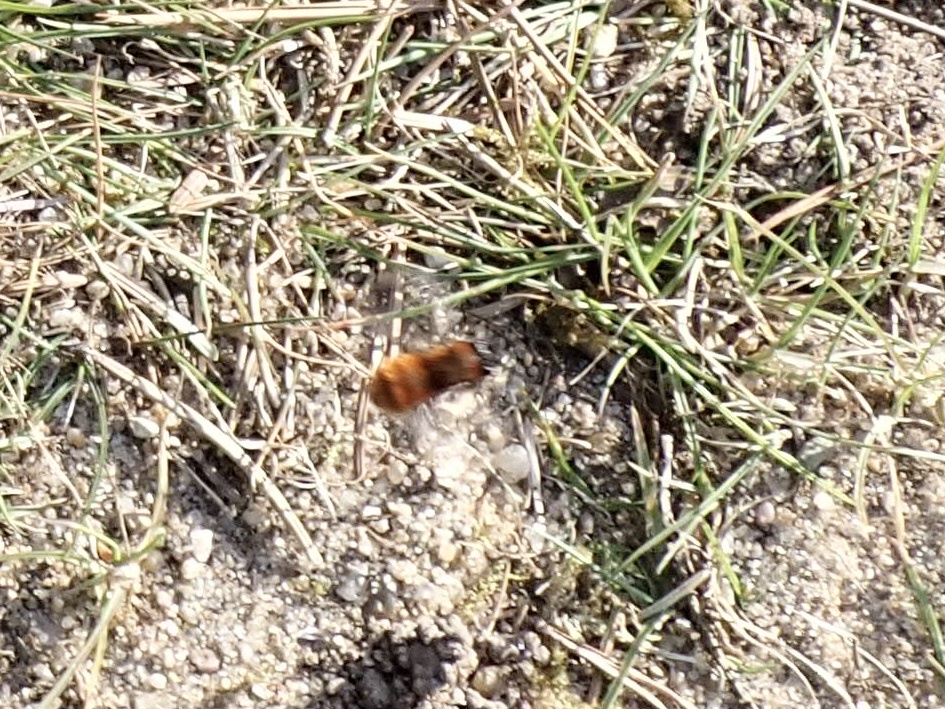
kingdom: Animalia
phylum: Arthropoda
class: Insecta
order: Hymenoptera
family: Andrenidae
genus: Andrena
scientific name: Andrena fulva
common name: Tawny mining bee
